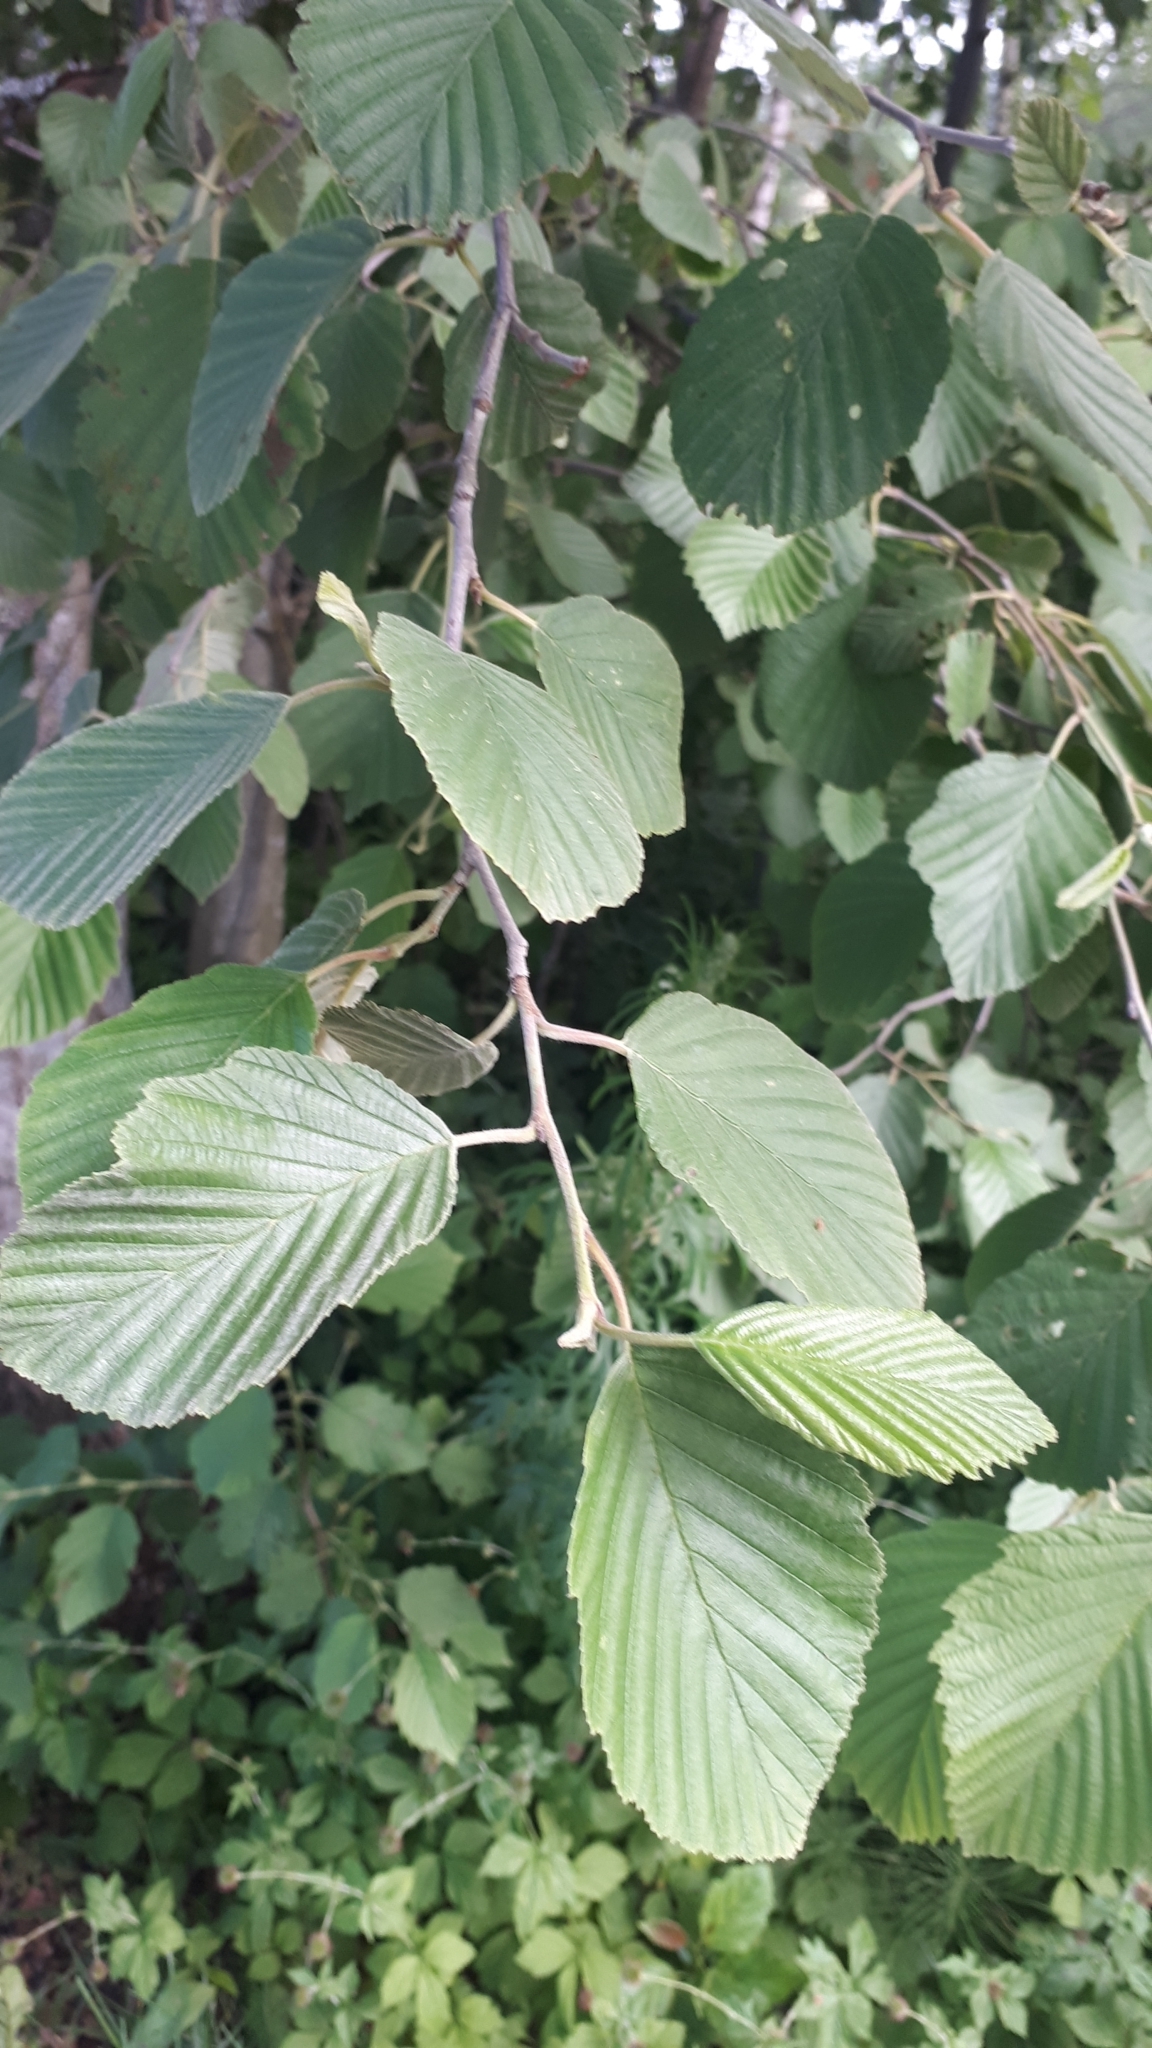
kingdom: Plantae
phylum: Tracheophyta
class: Magnoliopsida
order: Fagales
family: Betulaceae
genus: Alnus
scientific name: Alnus incana
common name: Grey alder
